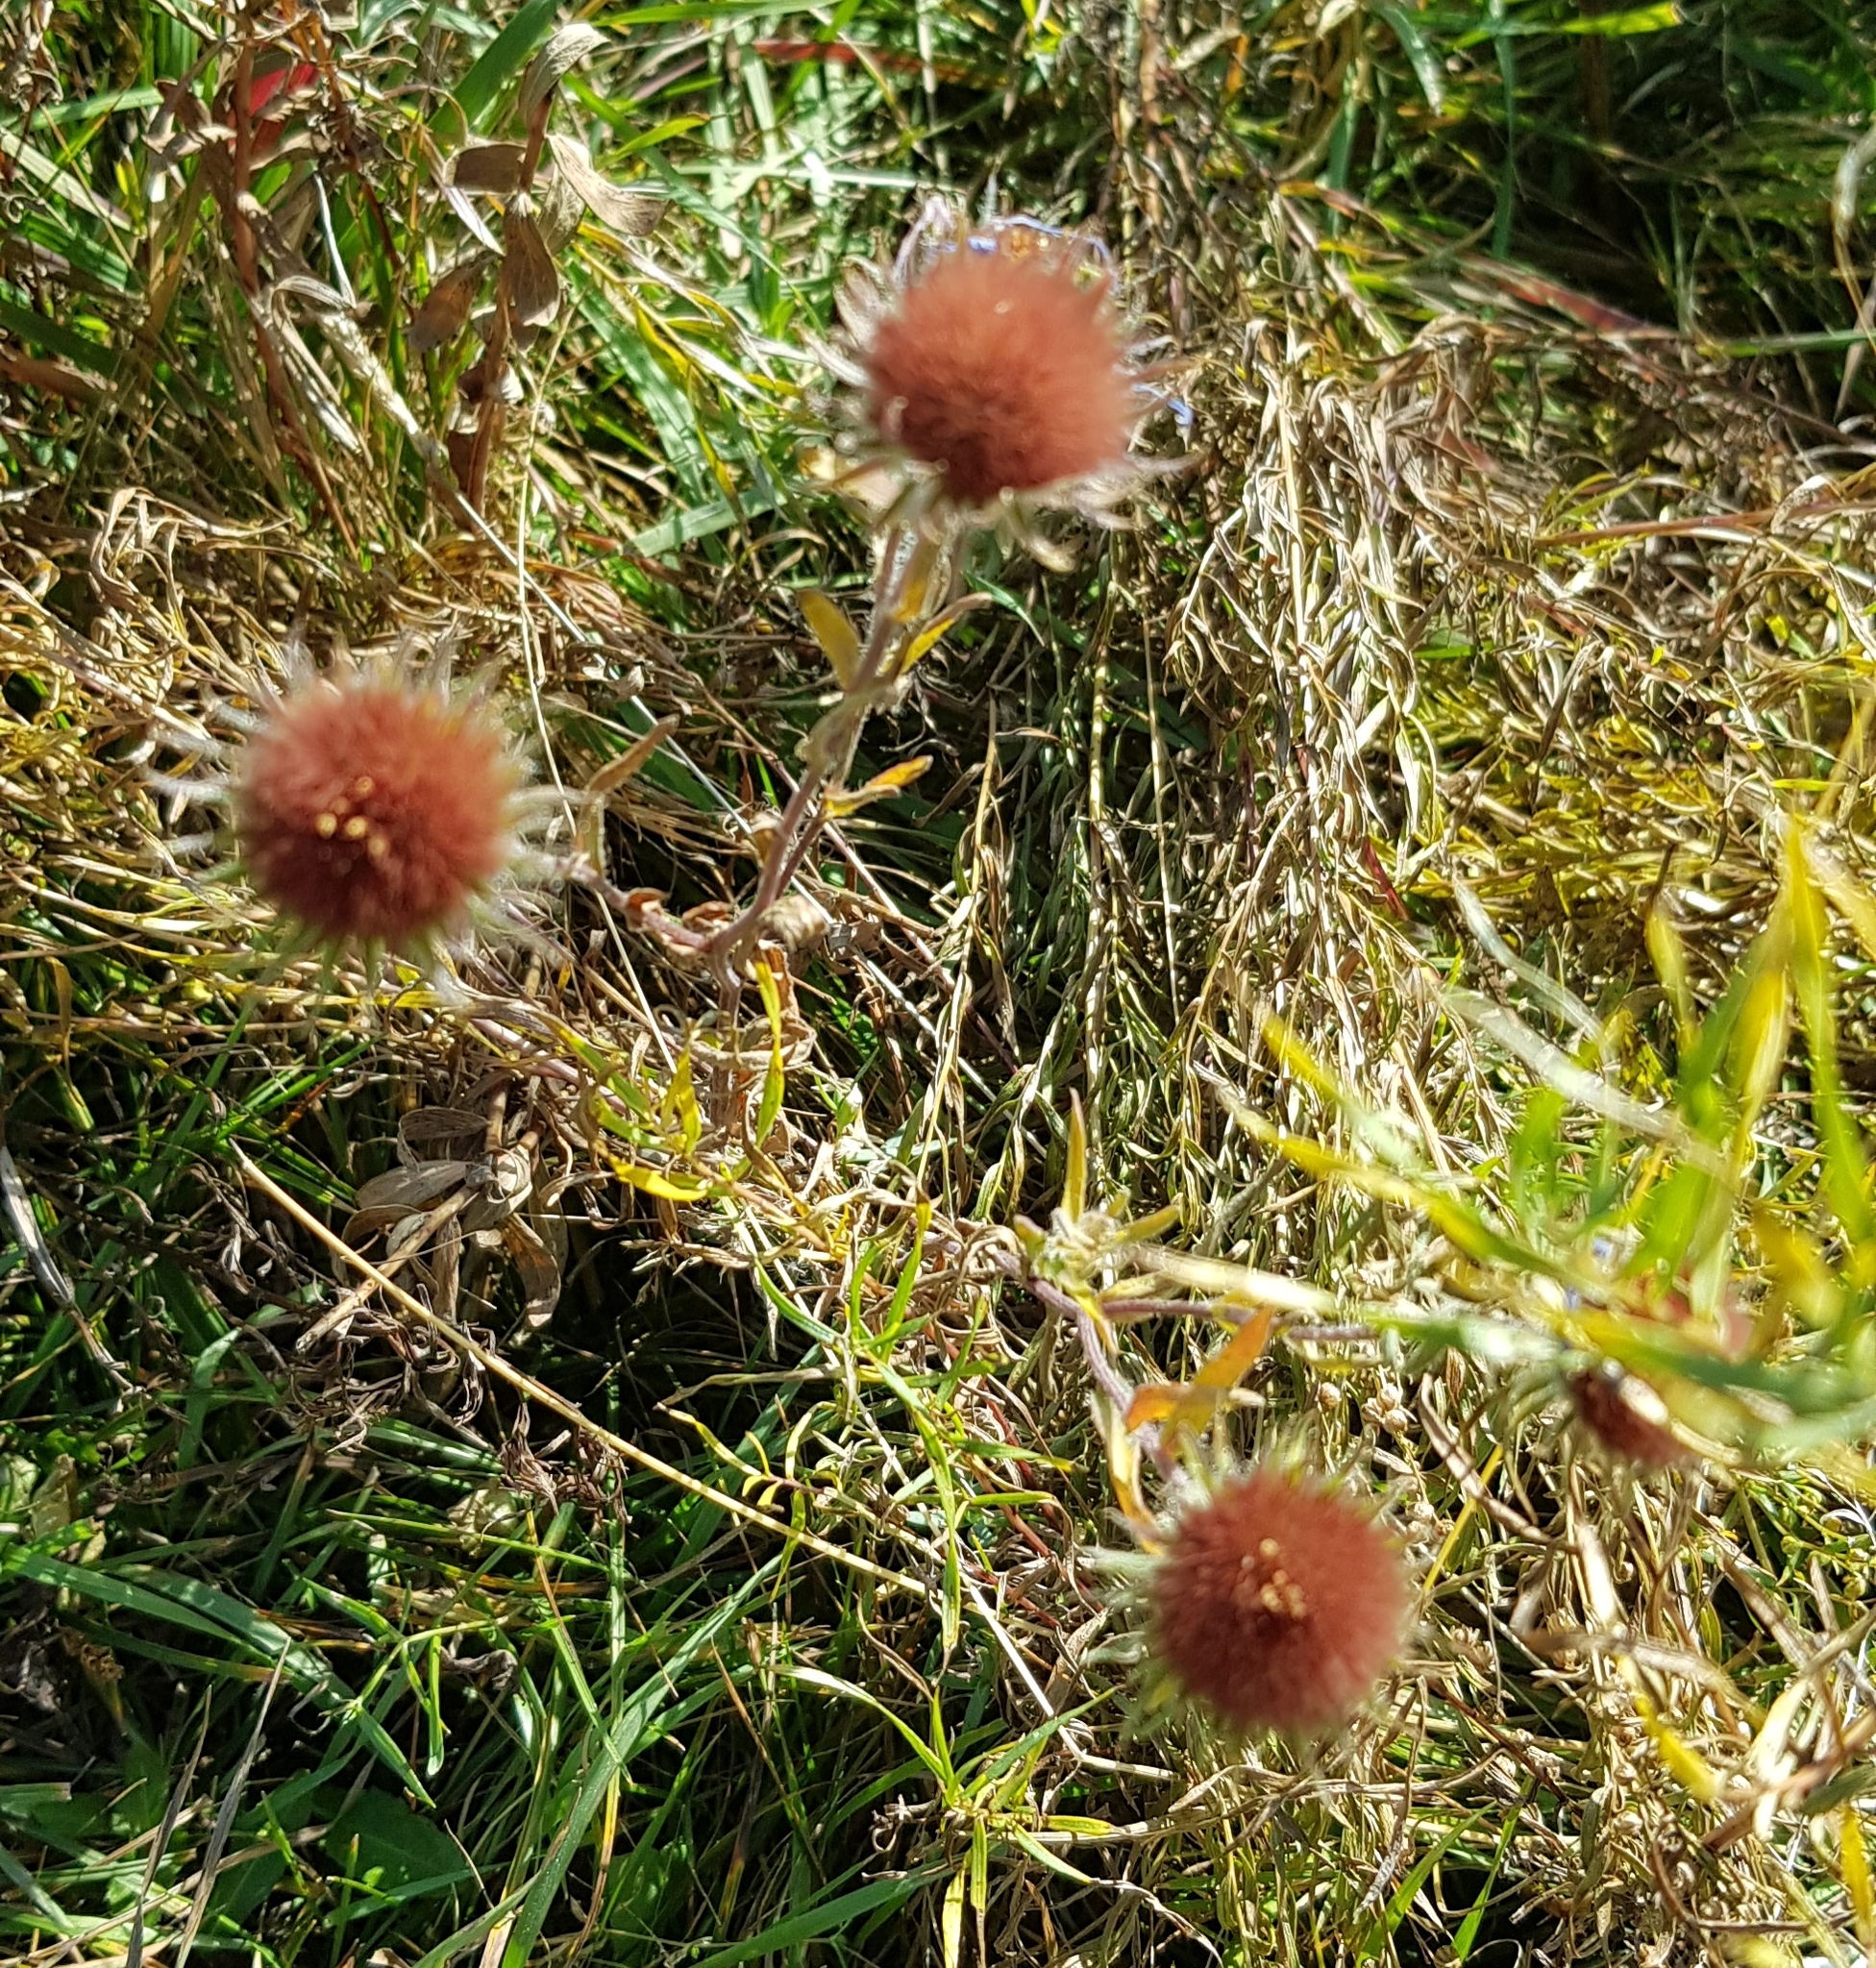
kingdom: Plantae
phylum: Tracheophyta
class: Magnoliopsida
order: Asterales
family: Asteraceae
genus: Heteropappus
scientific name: Heteropappus altaicus
